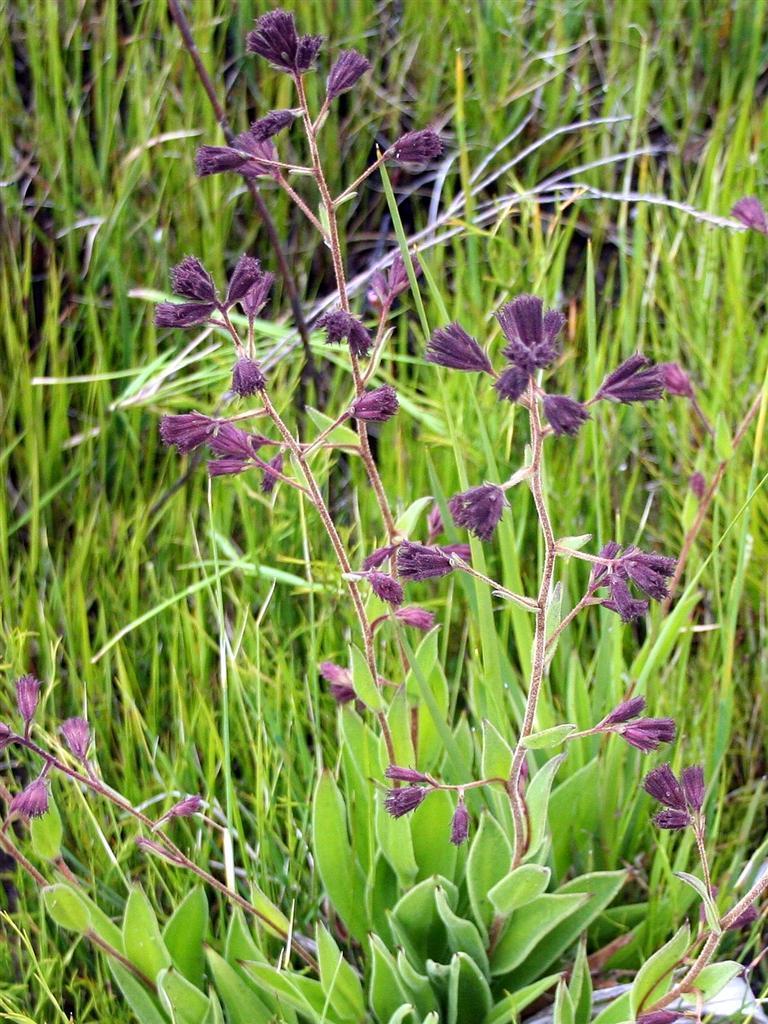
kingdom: Plantae
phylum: Tracheophyta
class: Magnoliopsida
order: Asterales
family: Asteraceae
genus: Corymbium
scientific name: Corymbium congestum
